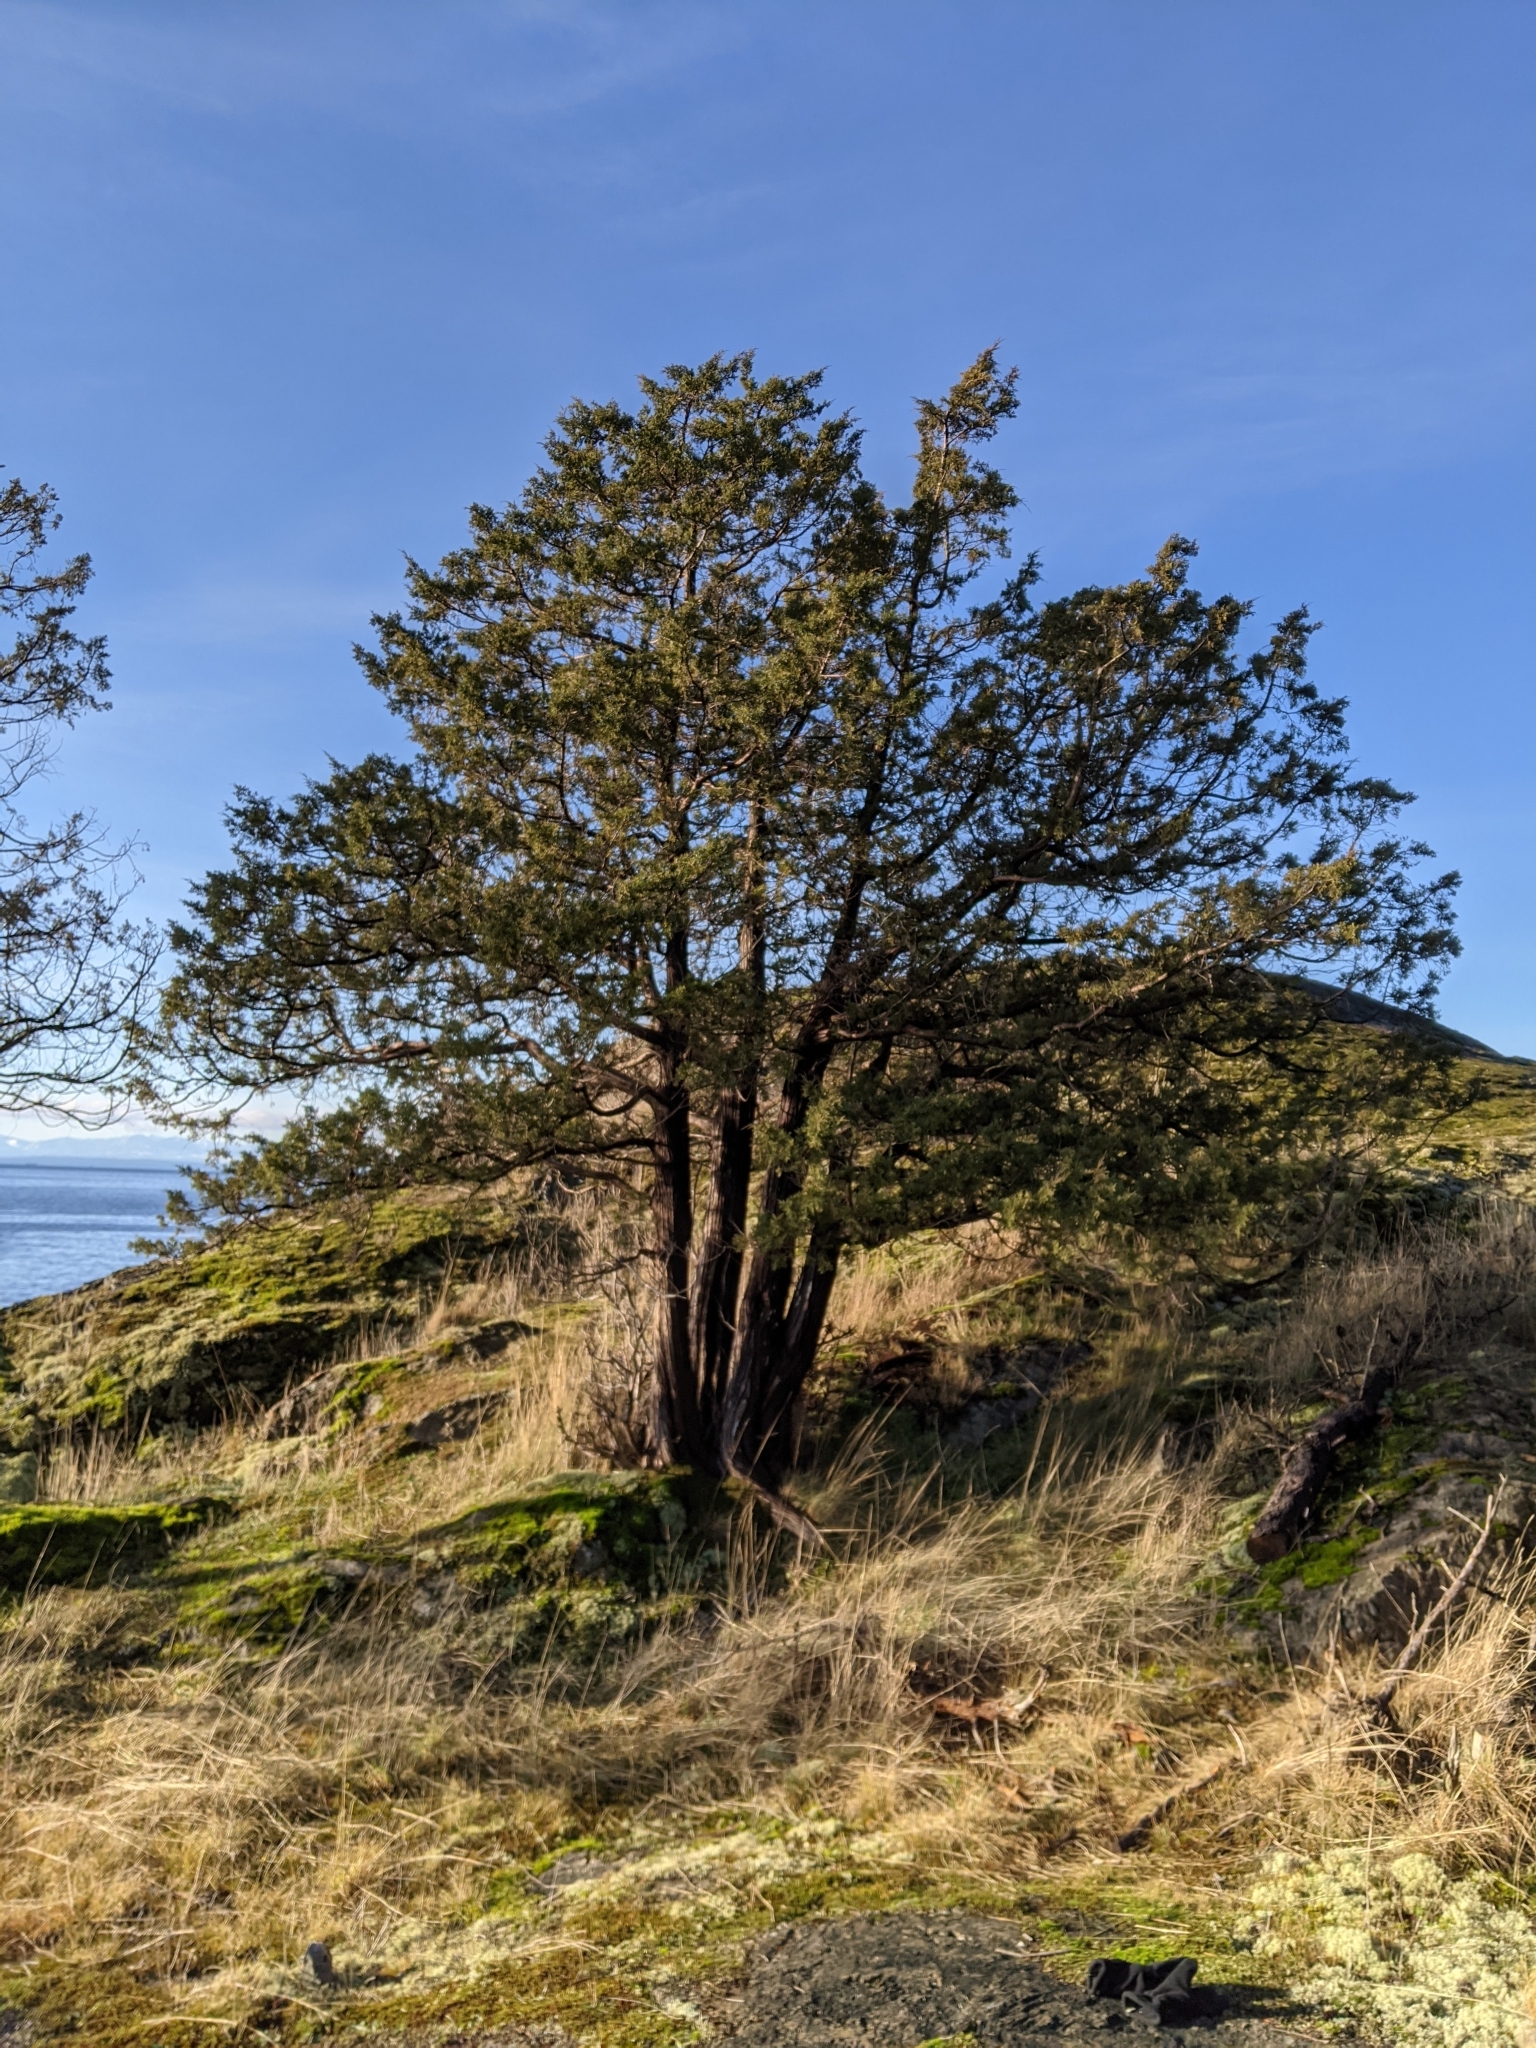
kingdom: Plantae
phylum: Tracheophyta
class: Pinopsida
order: Pinales
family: Cupressaceae
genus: Juniperus
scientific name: Juniperus scopulorum
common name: Rocky mountain juniper
